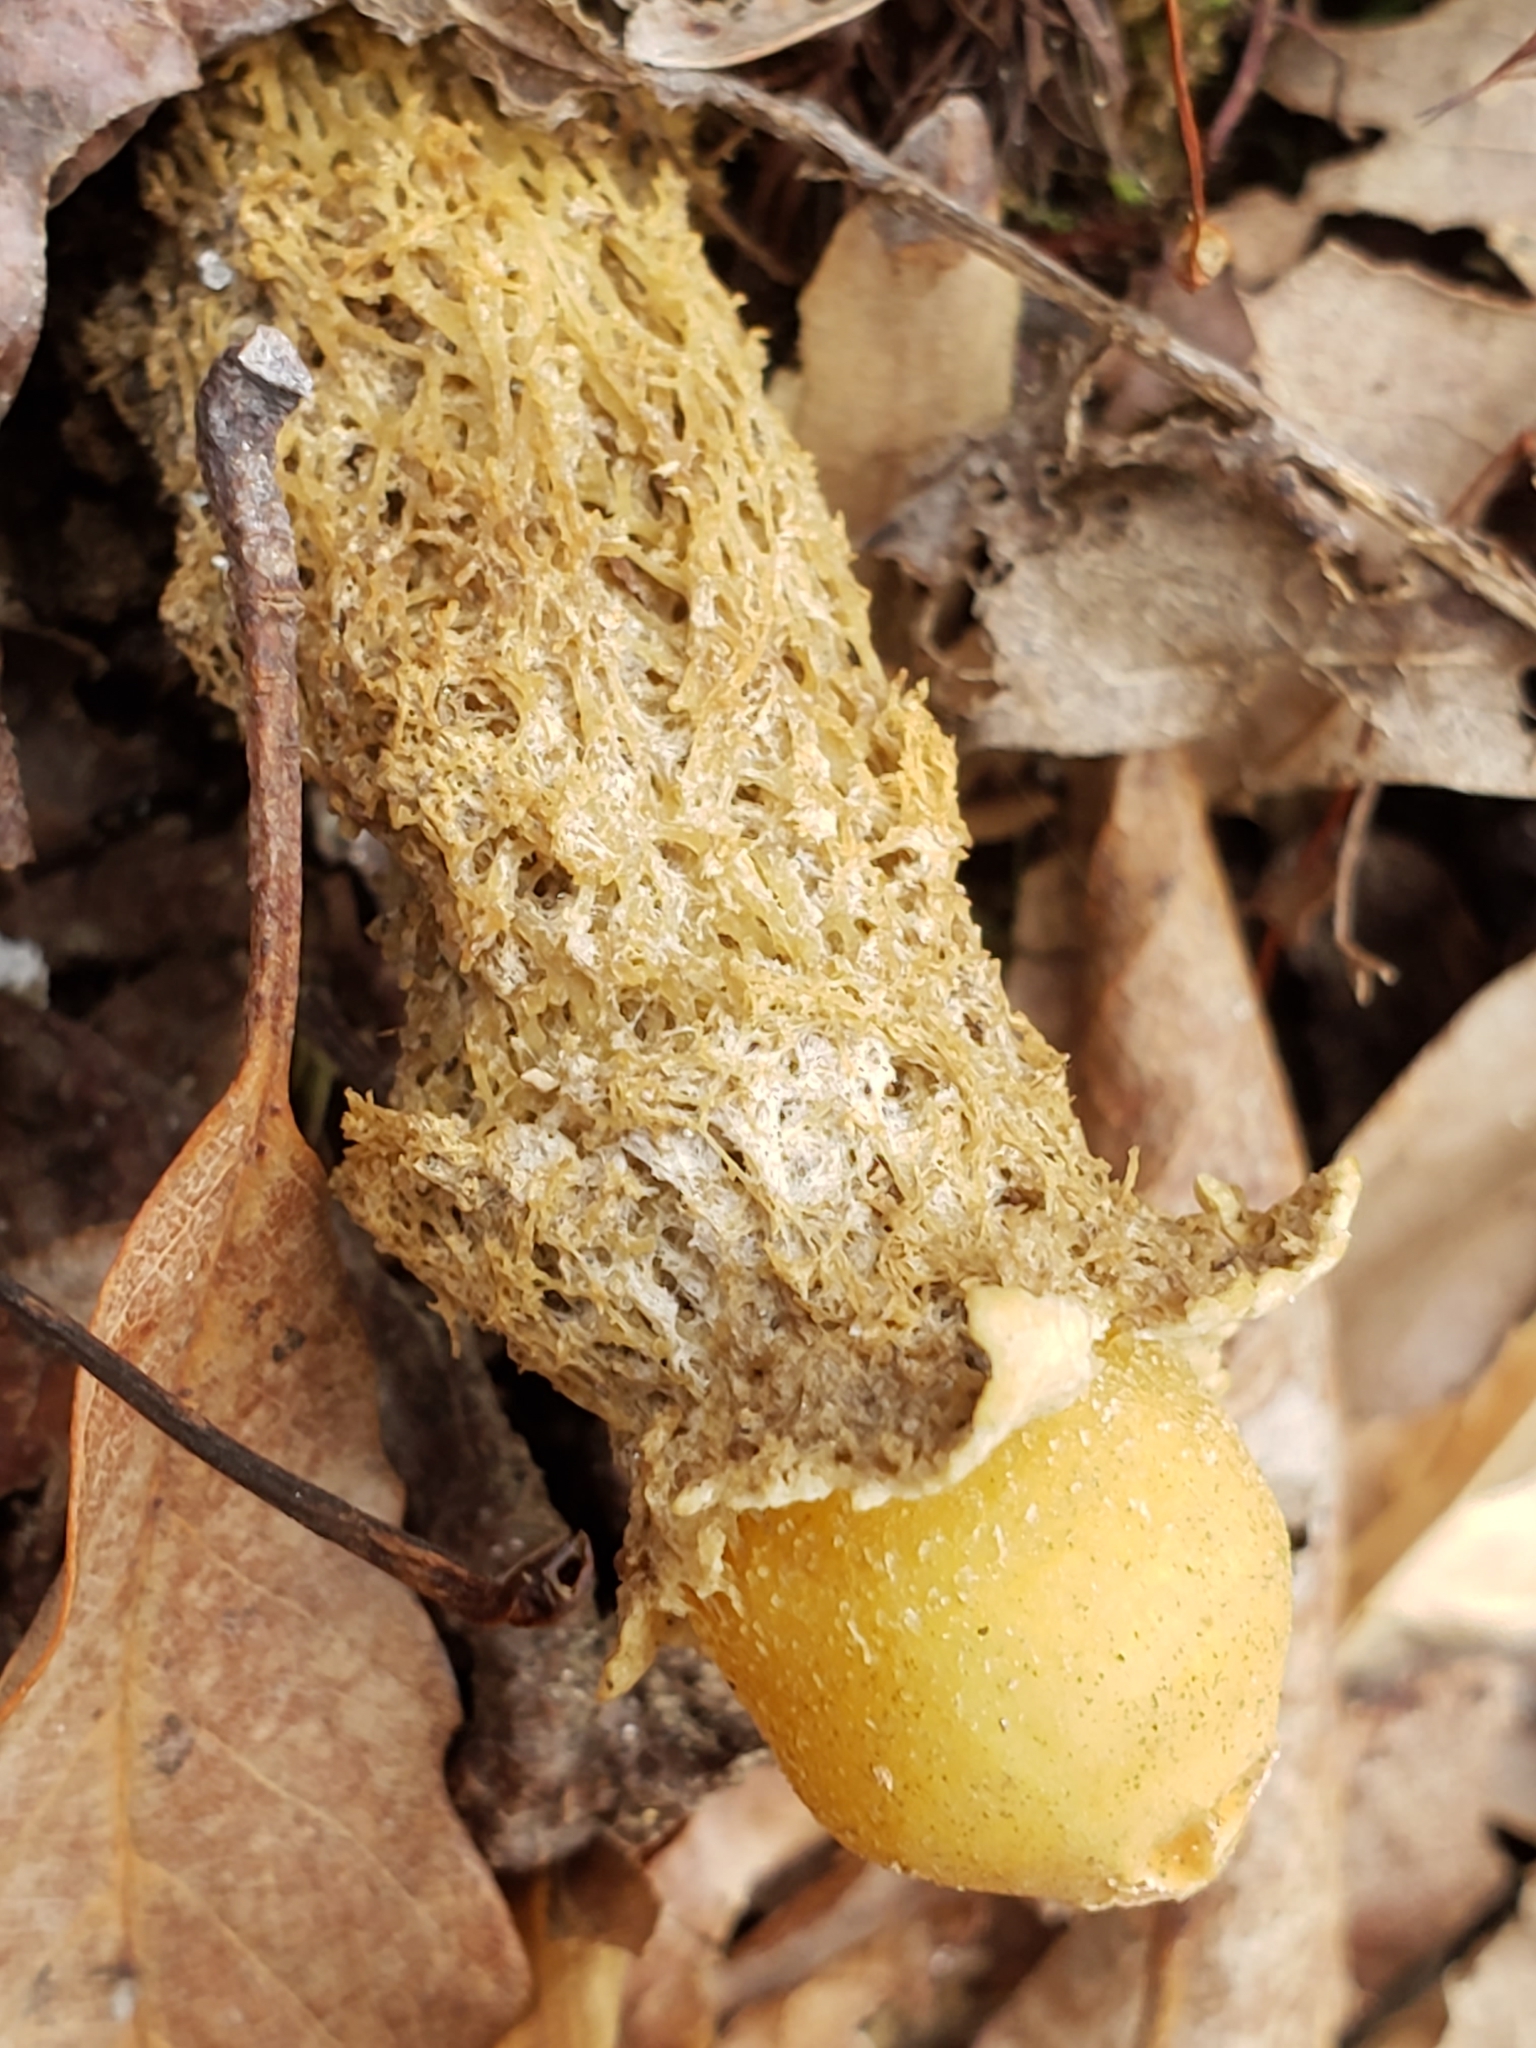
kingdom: Fungi
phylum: Basidiomycota
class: Agaricomycetes
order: Boletales
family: Calostomataceae
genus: Calostoma
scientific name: Calostoma lutescens
